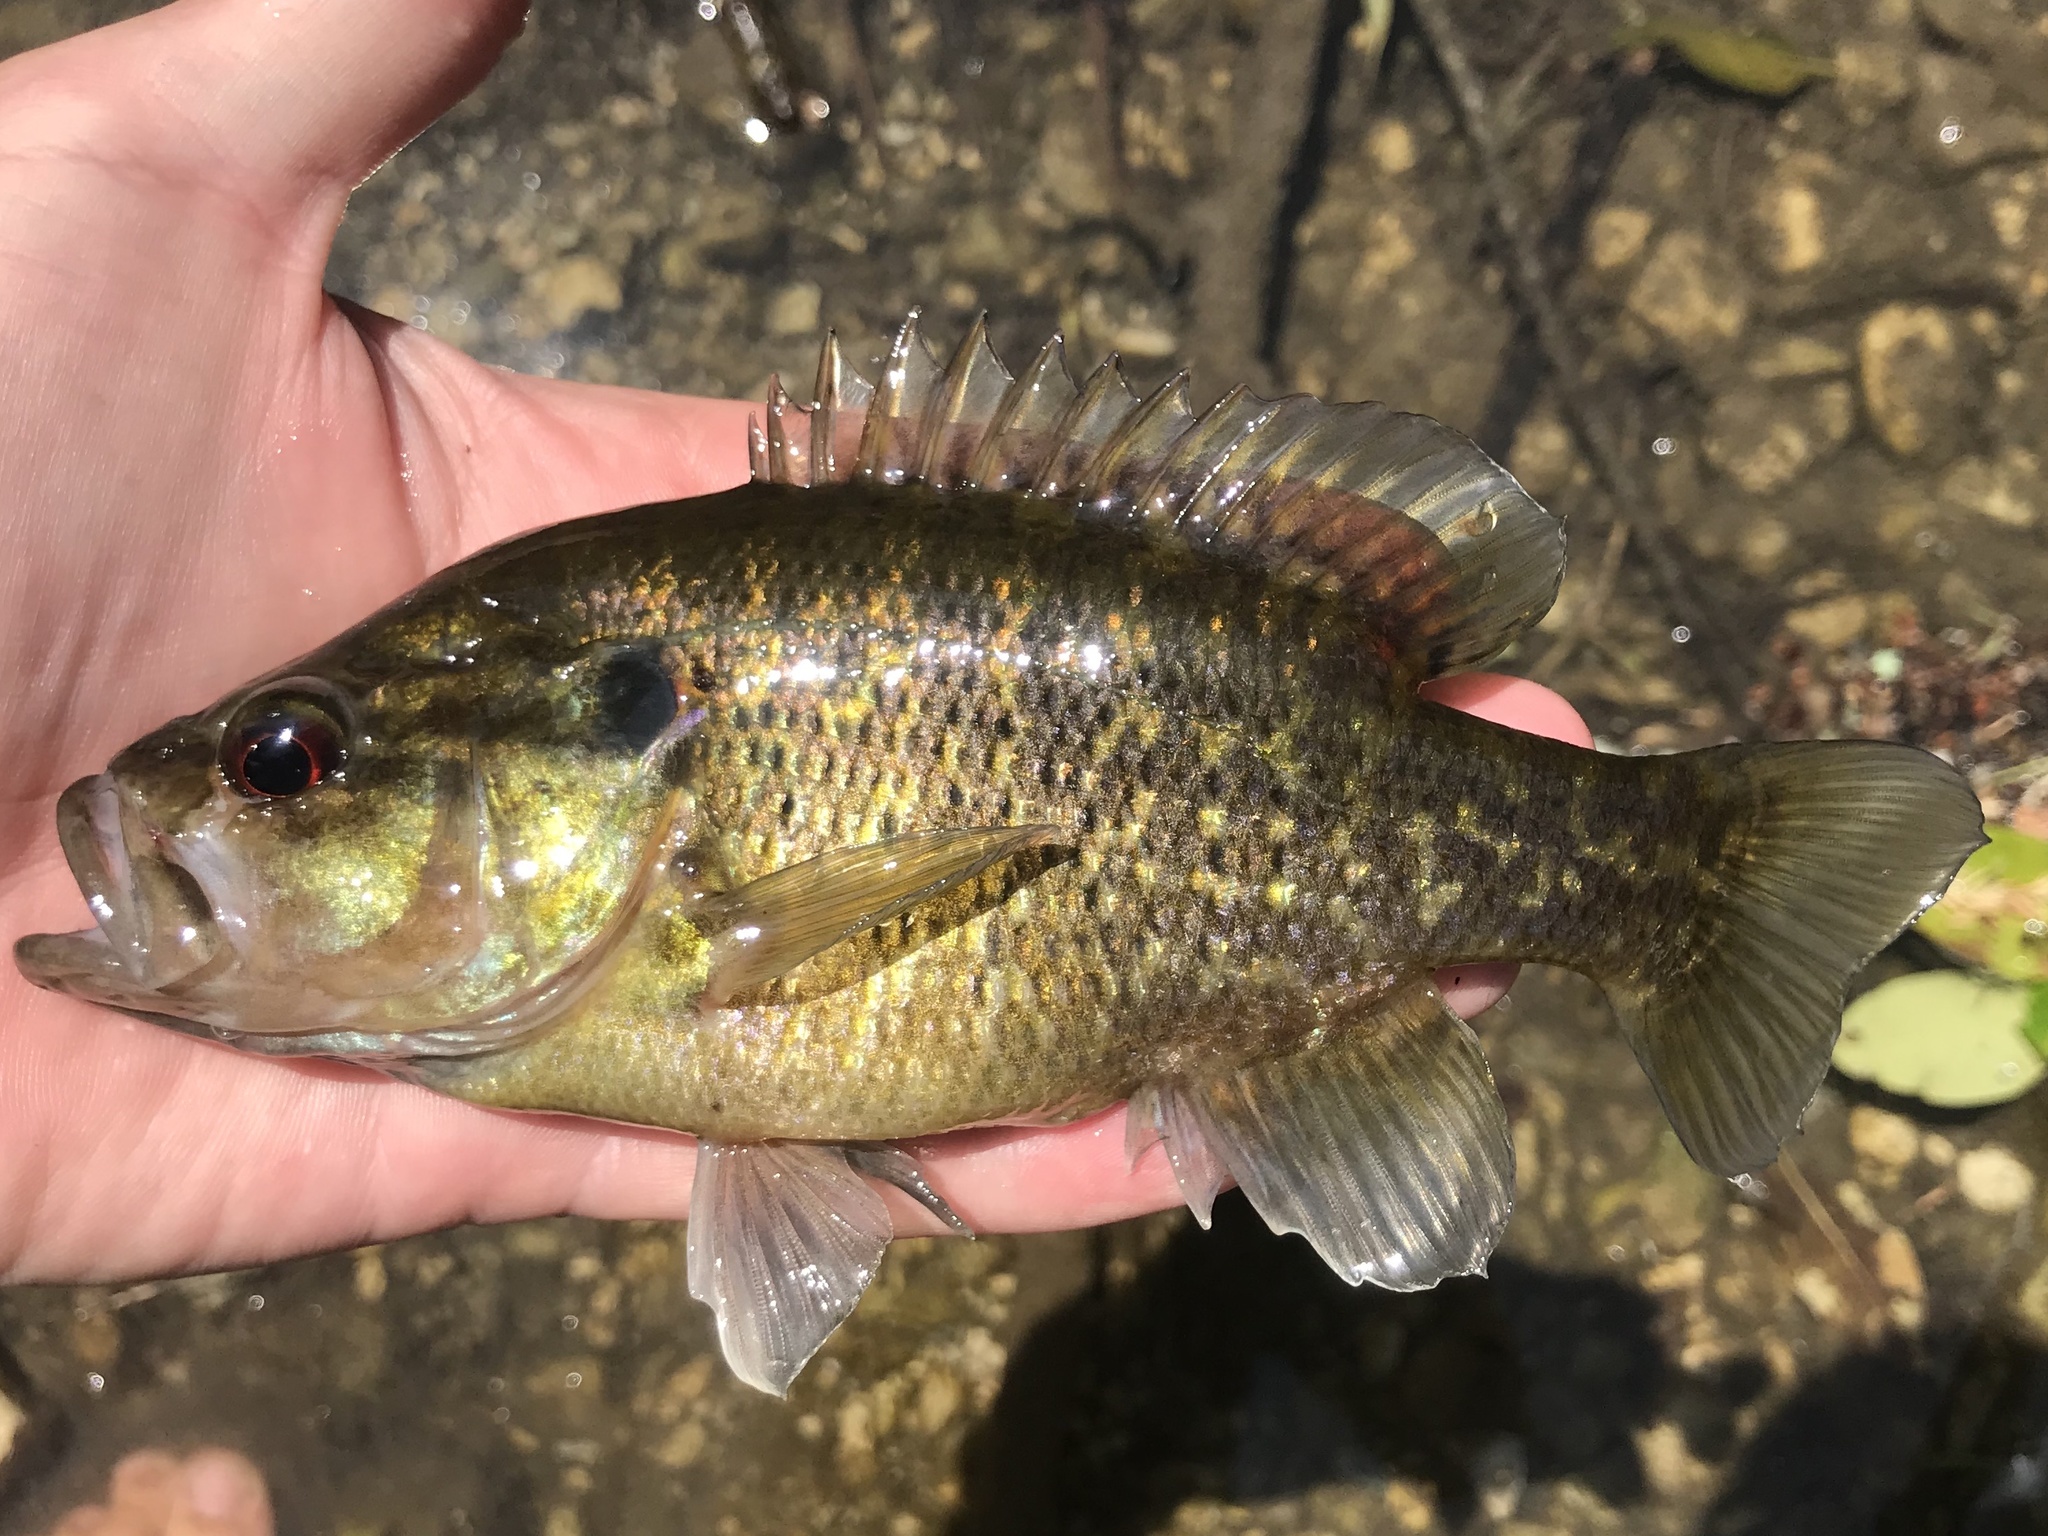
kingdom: Animalia
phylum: Chordata
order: Perciformes
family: Centrarchidae
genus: Lepomis
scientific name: Lepomis gulosus
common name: Warmouth
